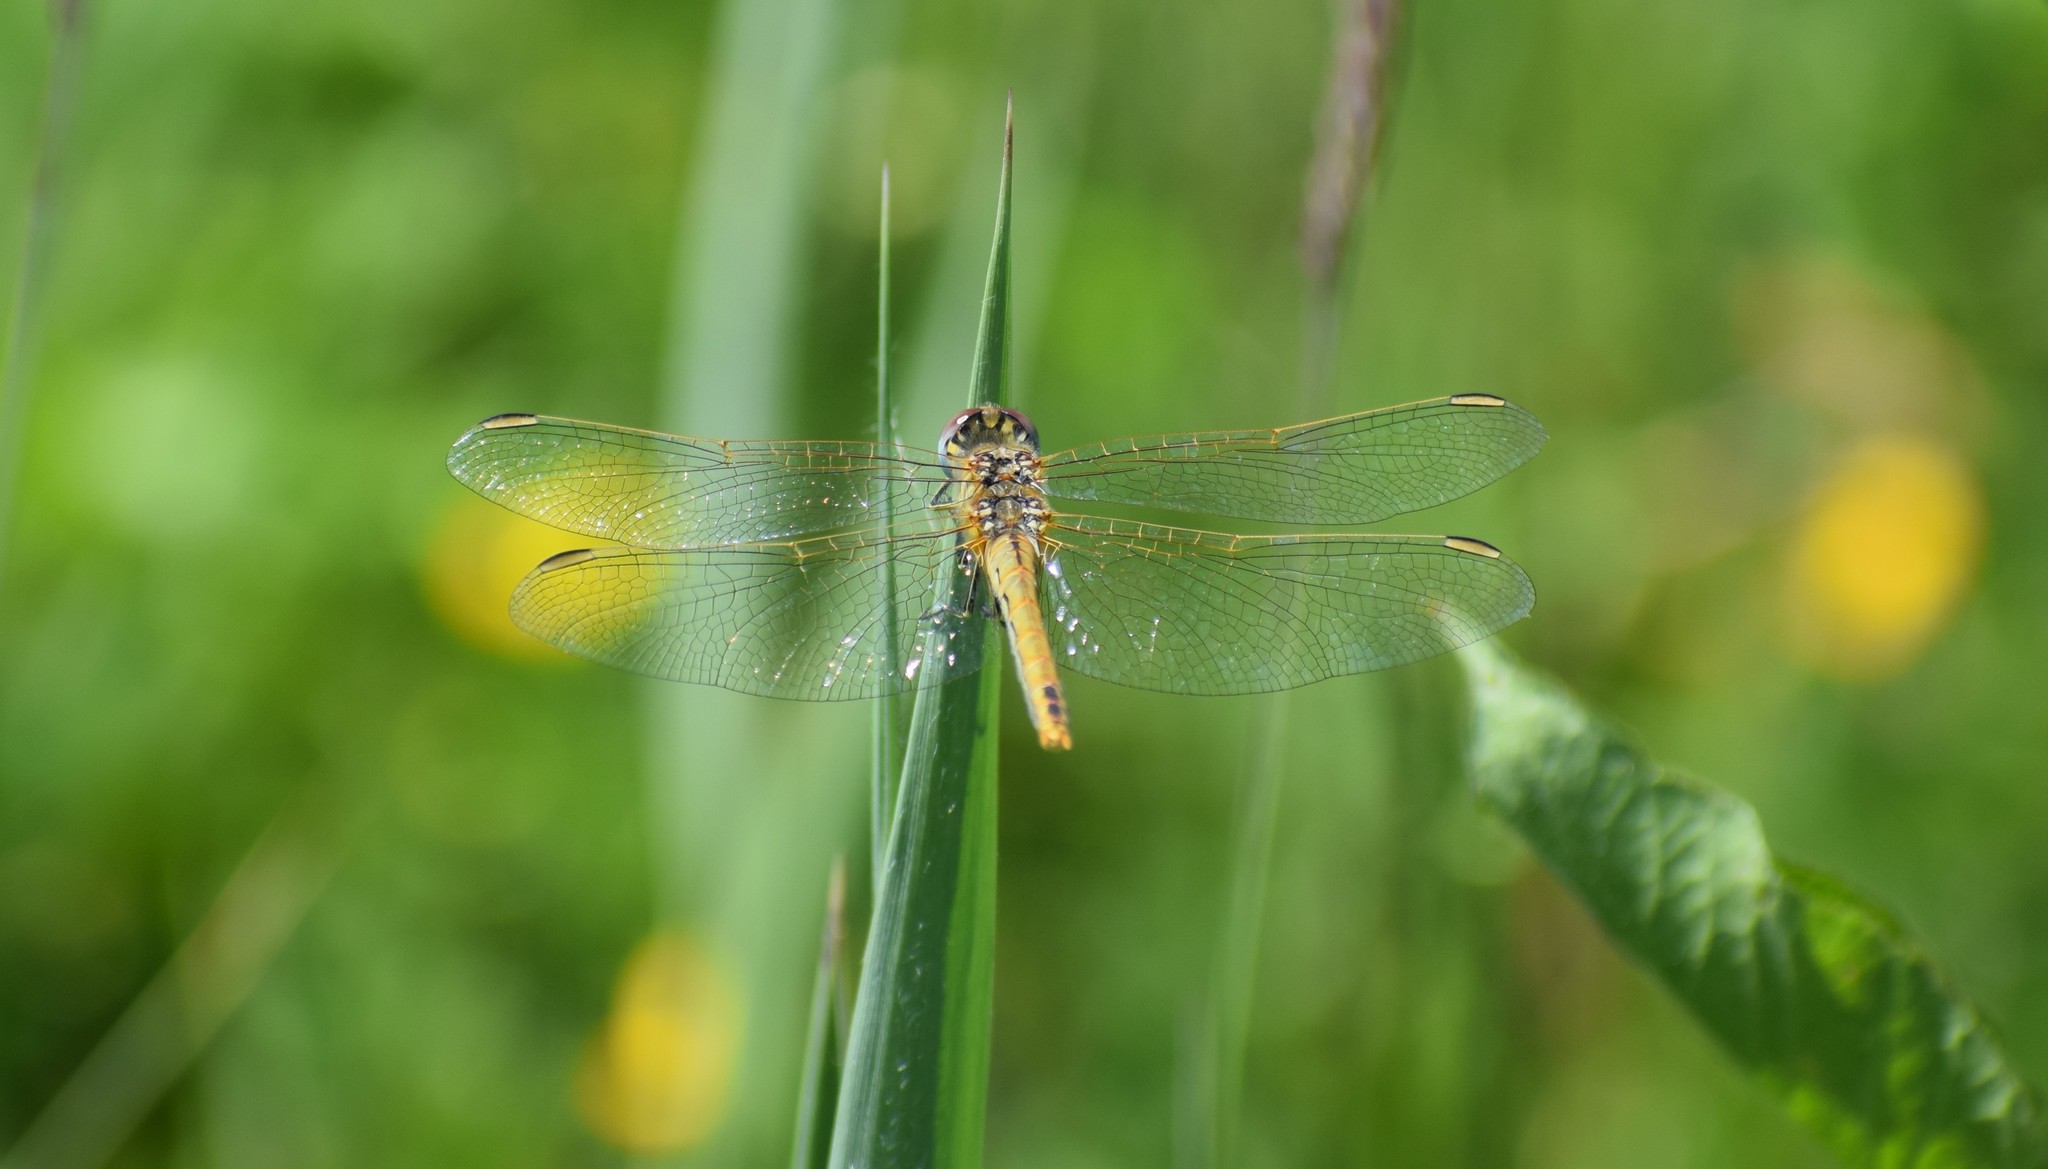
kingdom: Animalia
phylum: Arthropoda
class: Insecta
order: Odonata
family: Libellulidae
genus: Sympetrum
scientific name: Sympetrum fonscolombii
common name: Red-veined darter
